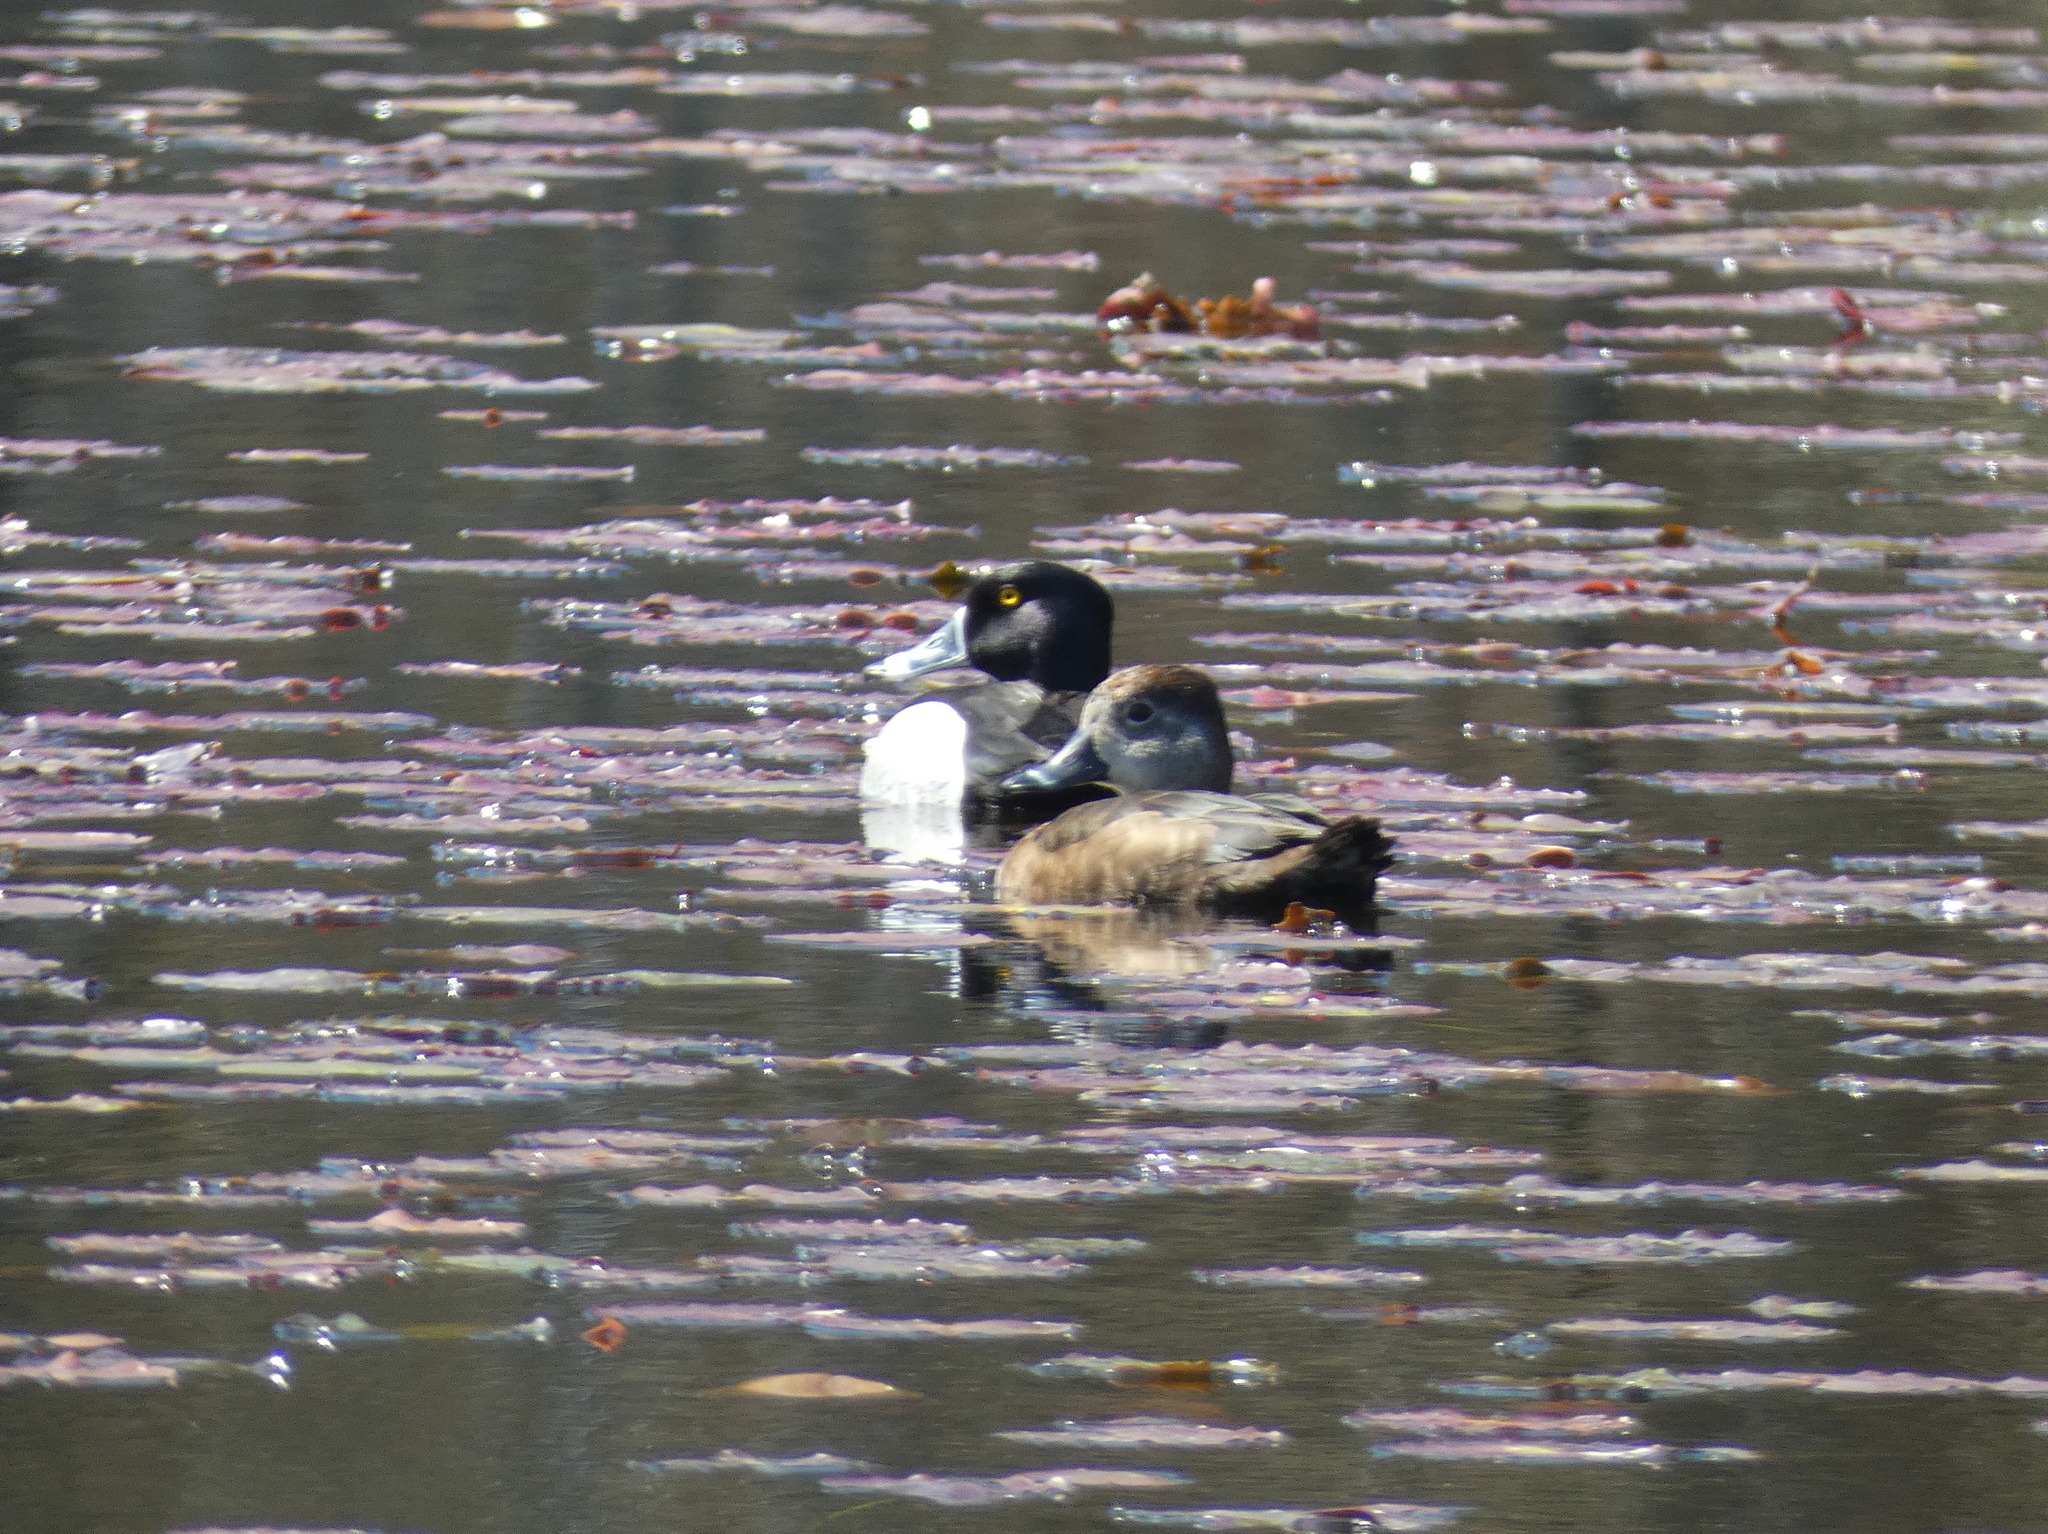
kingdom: Animalia
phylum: Chordata
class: Aves
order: Anseriformes
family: Anatidae
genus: Aythya
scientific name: Aythya collaris
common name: Ring-necked duck
